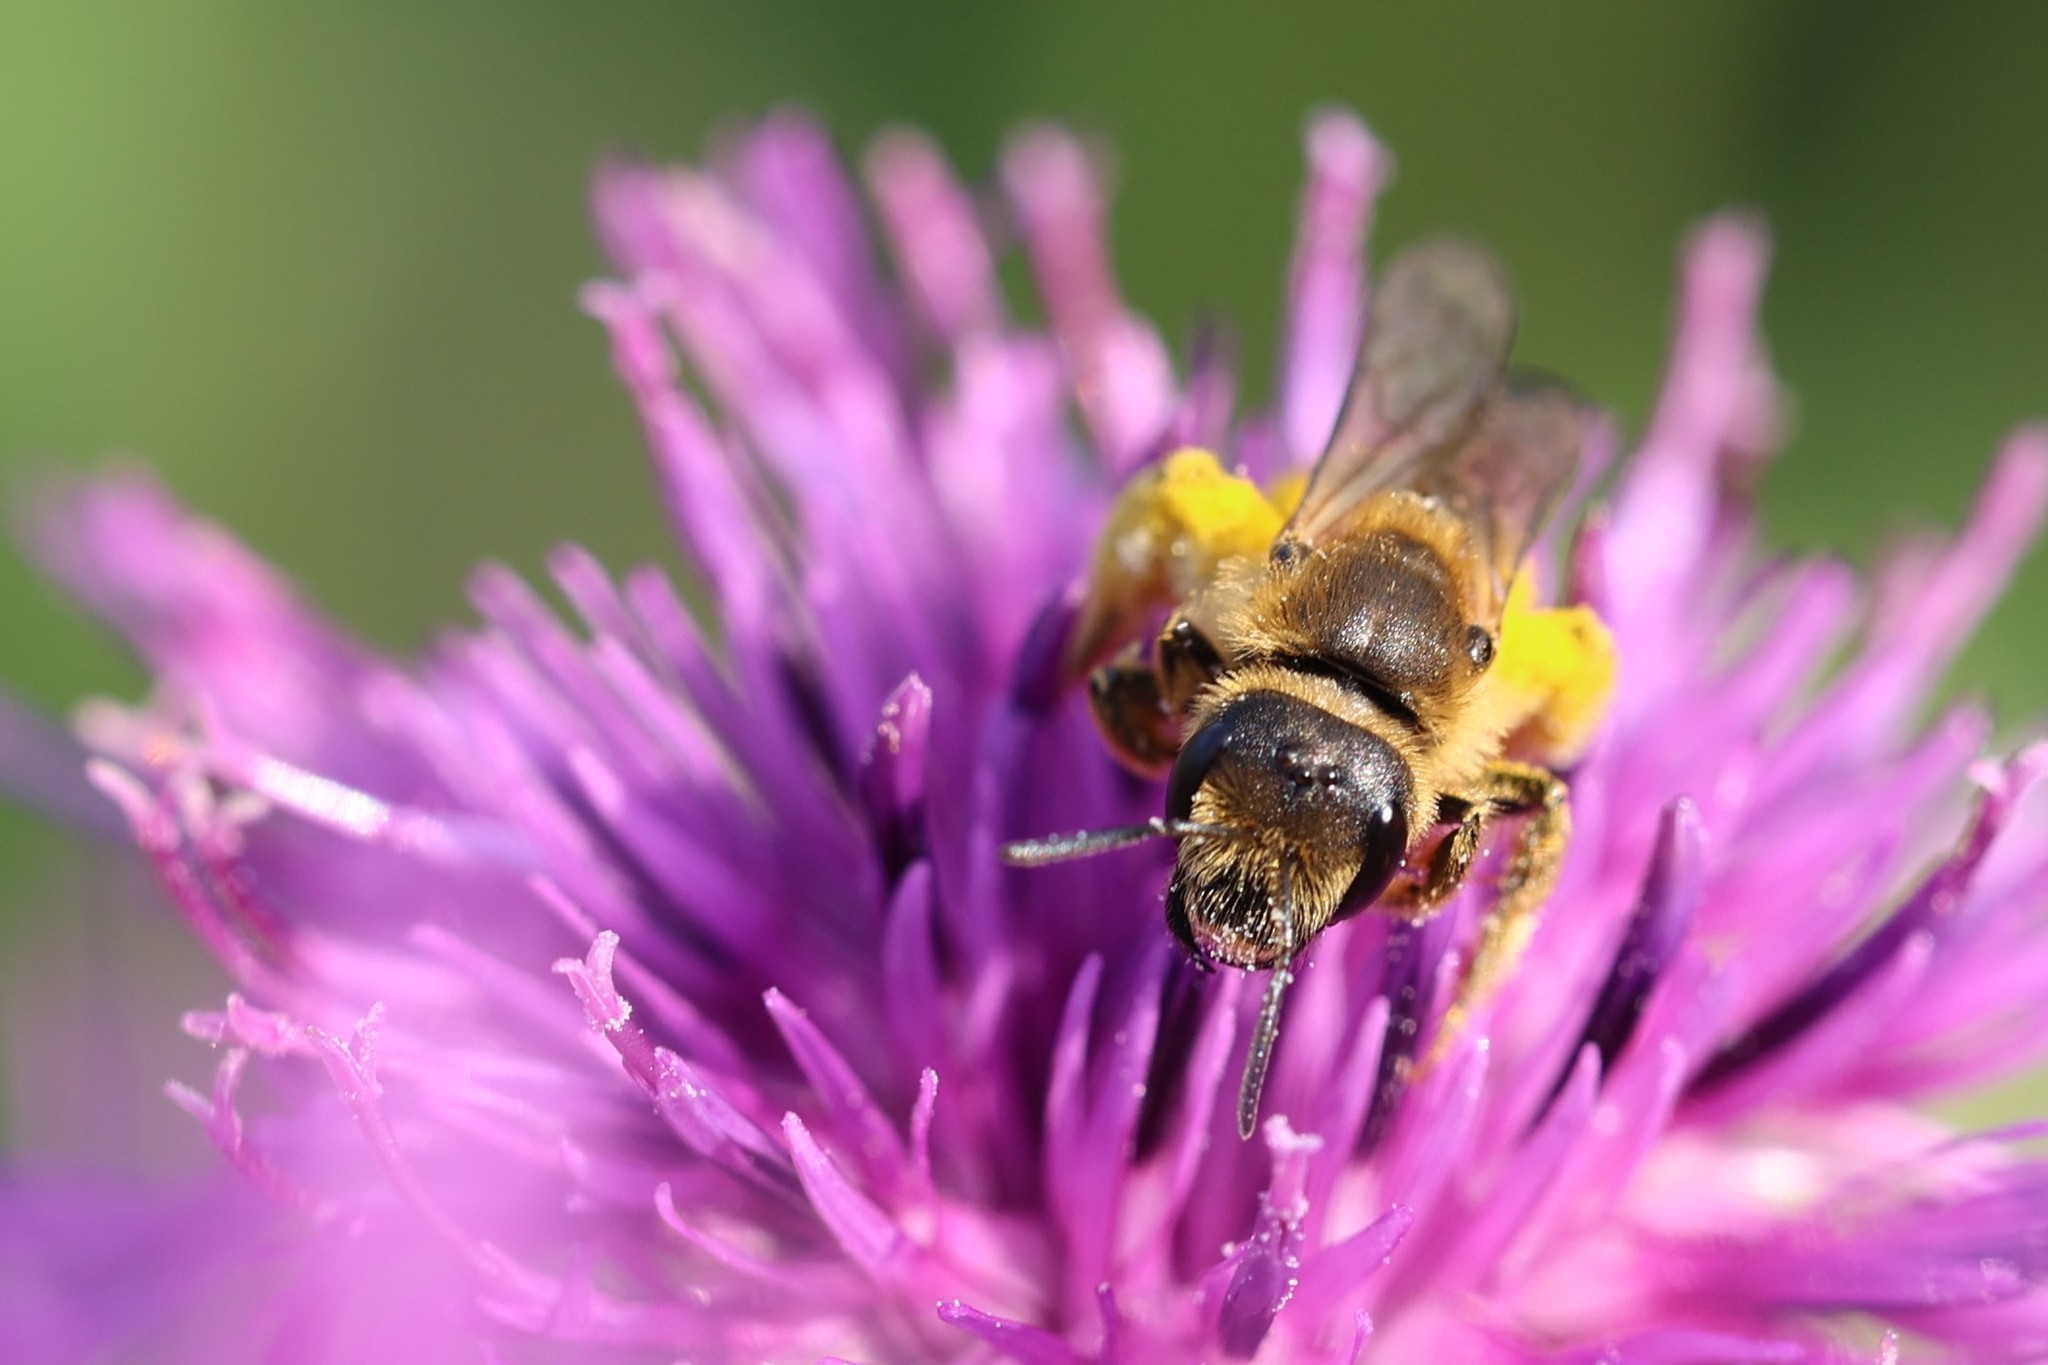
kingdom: Animalia
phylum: Arthropoda
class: Insecta
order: Hymenoptera
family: Halictidae
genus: Halictus
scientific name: Halictus scabiosae
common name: Great banded furrow bee
